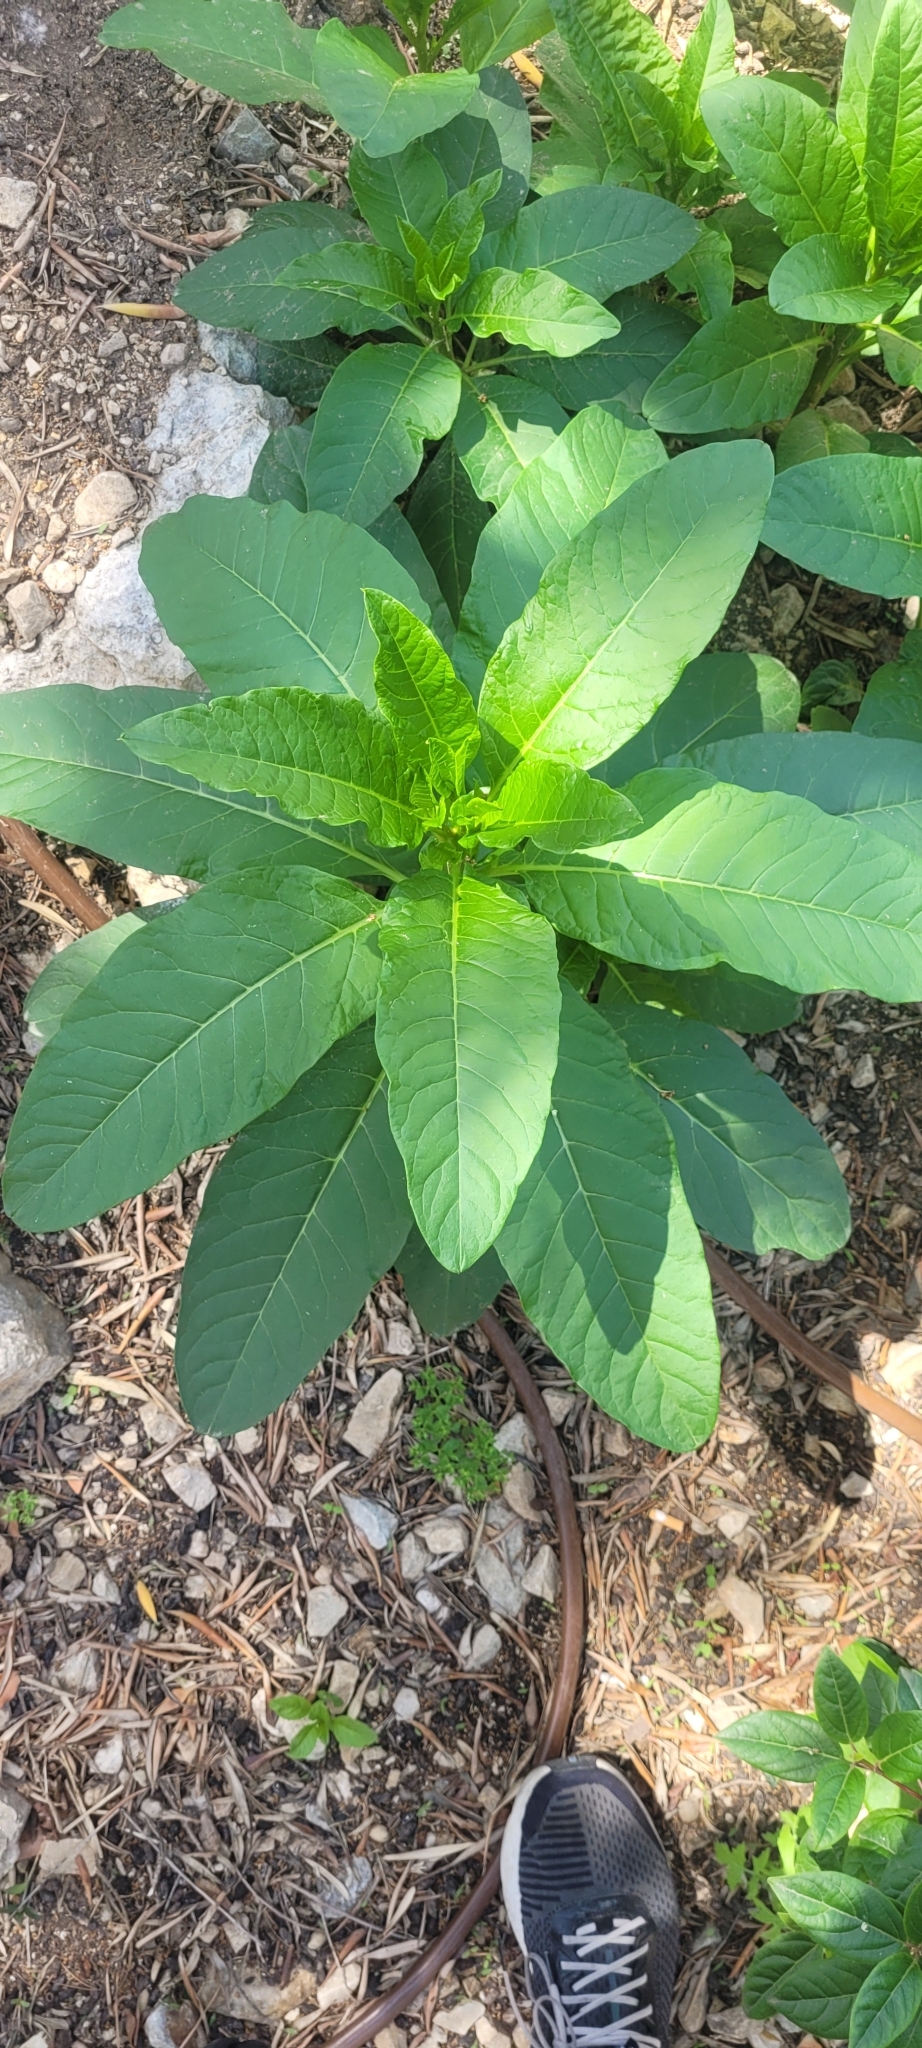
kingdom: Plantae
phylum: Tracheophyta
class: Magnoliopsida
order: Caryophyllales
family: Phytolaccaceae
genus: Phytolacca
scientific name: Phytolacca americana
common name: American pokeweed
